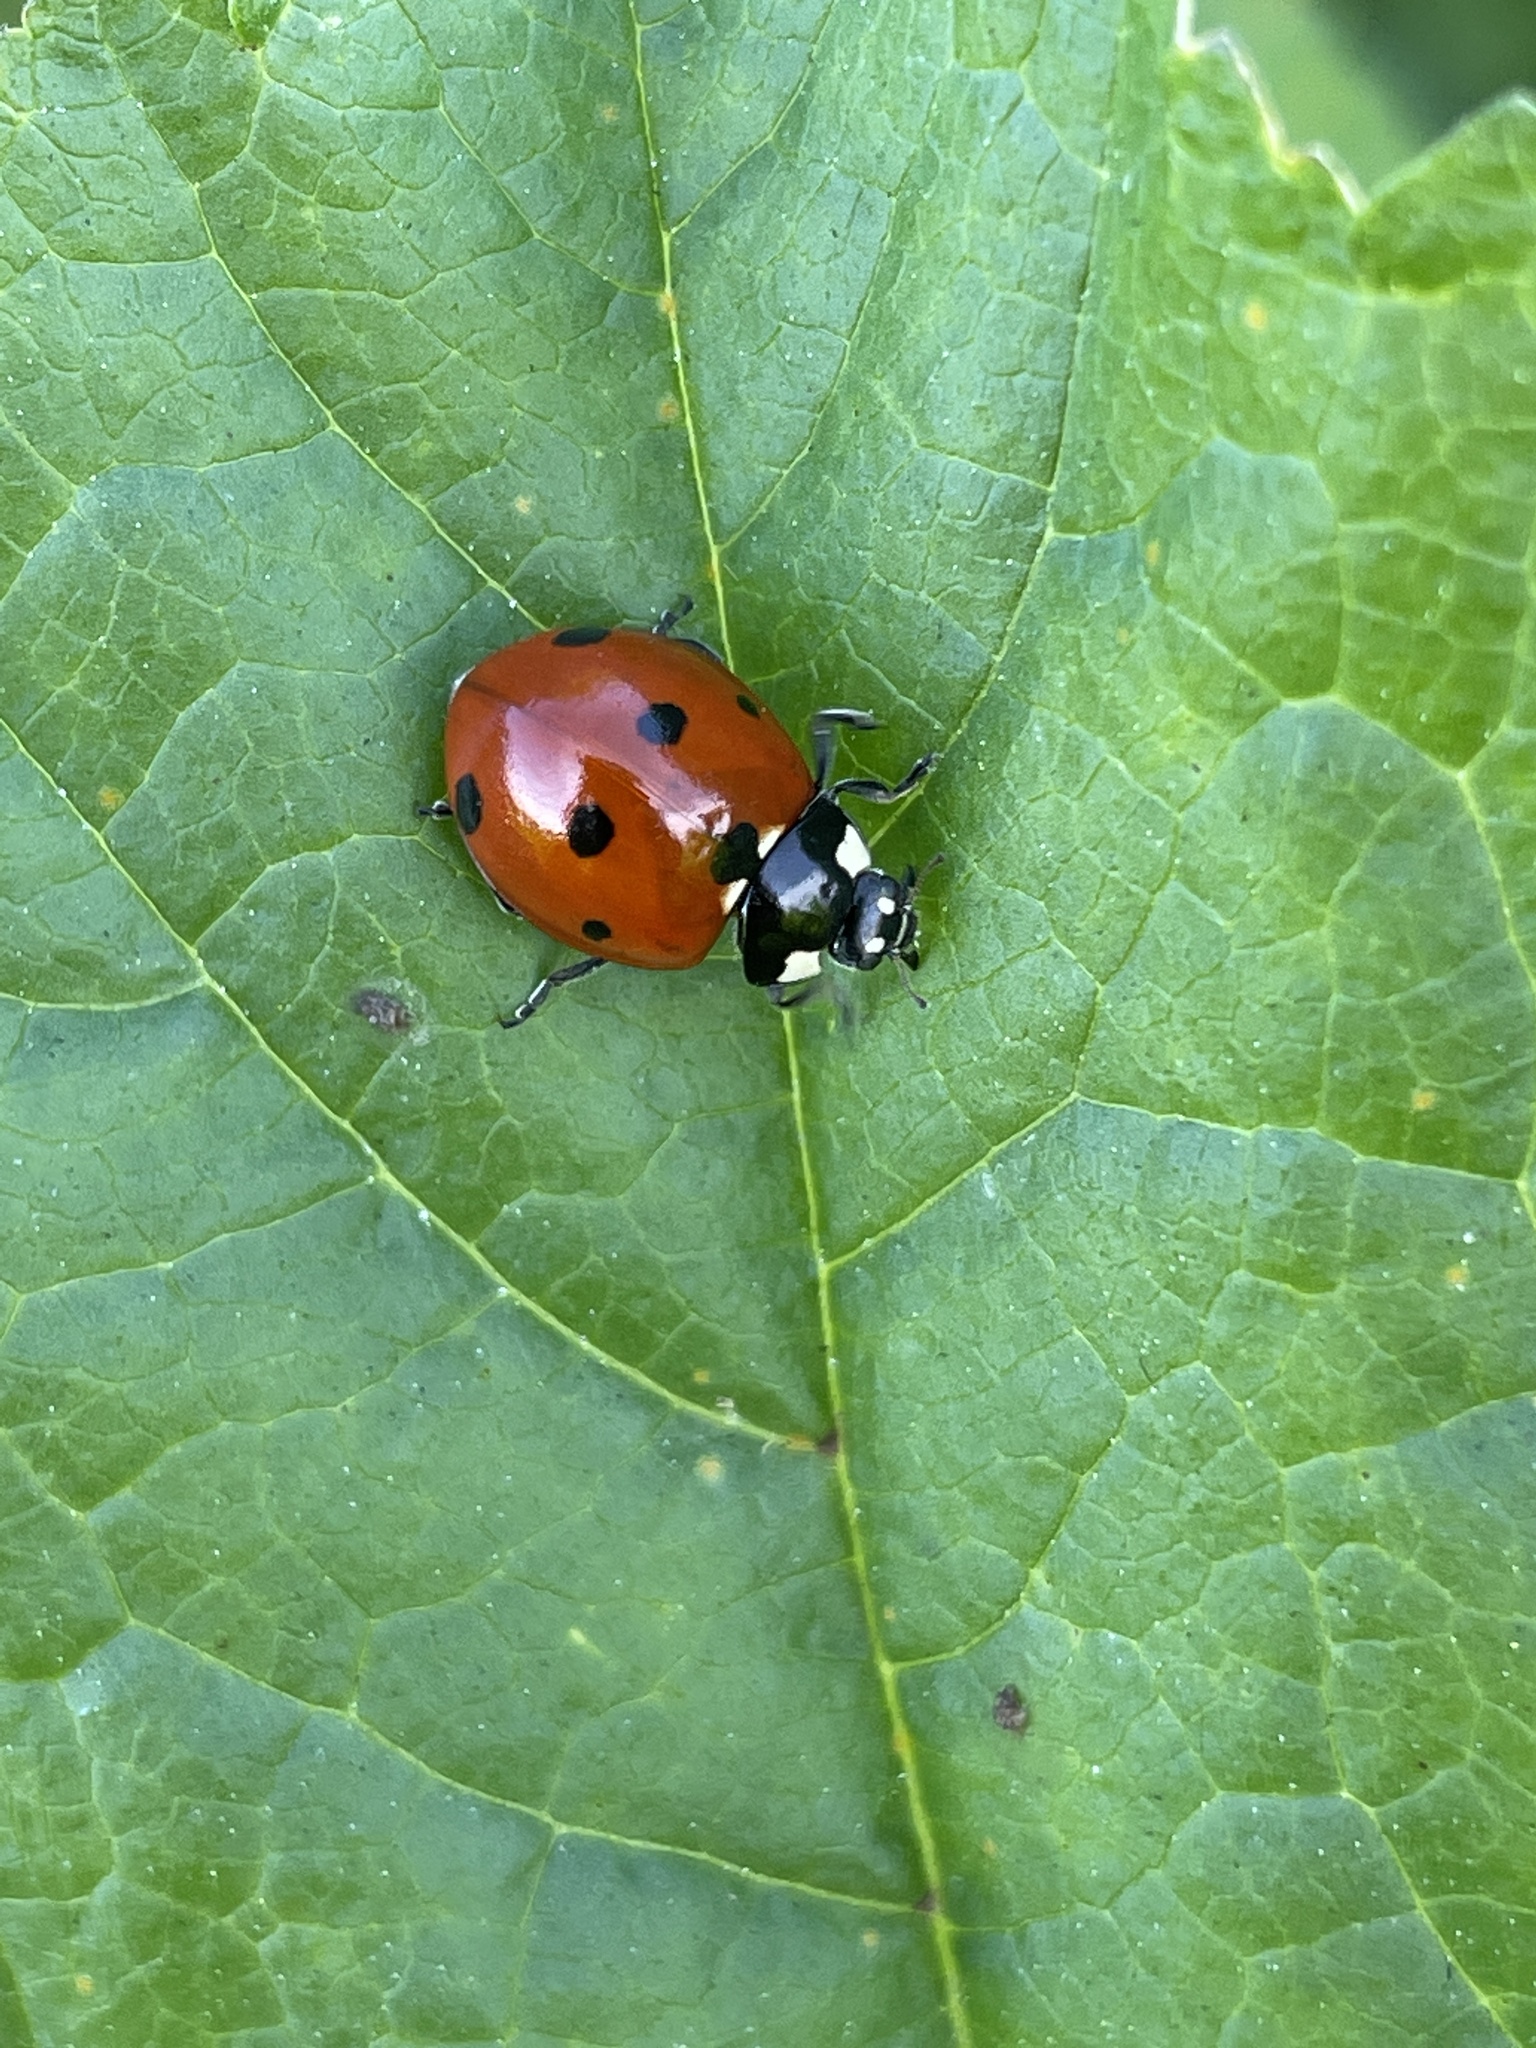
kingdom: Animalia
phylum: Arthropoda
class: Insecta
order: Coleoptera
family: Coccinellidae
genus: Coccinella
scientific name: Coccinella septempunctata
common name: Sevenspotted lady beetle
